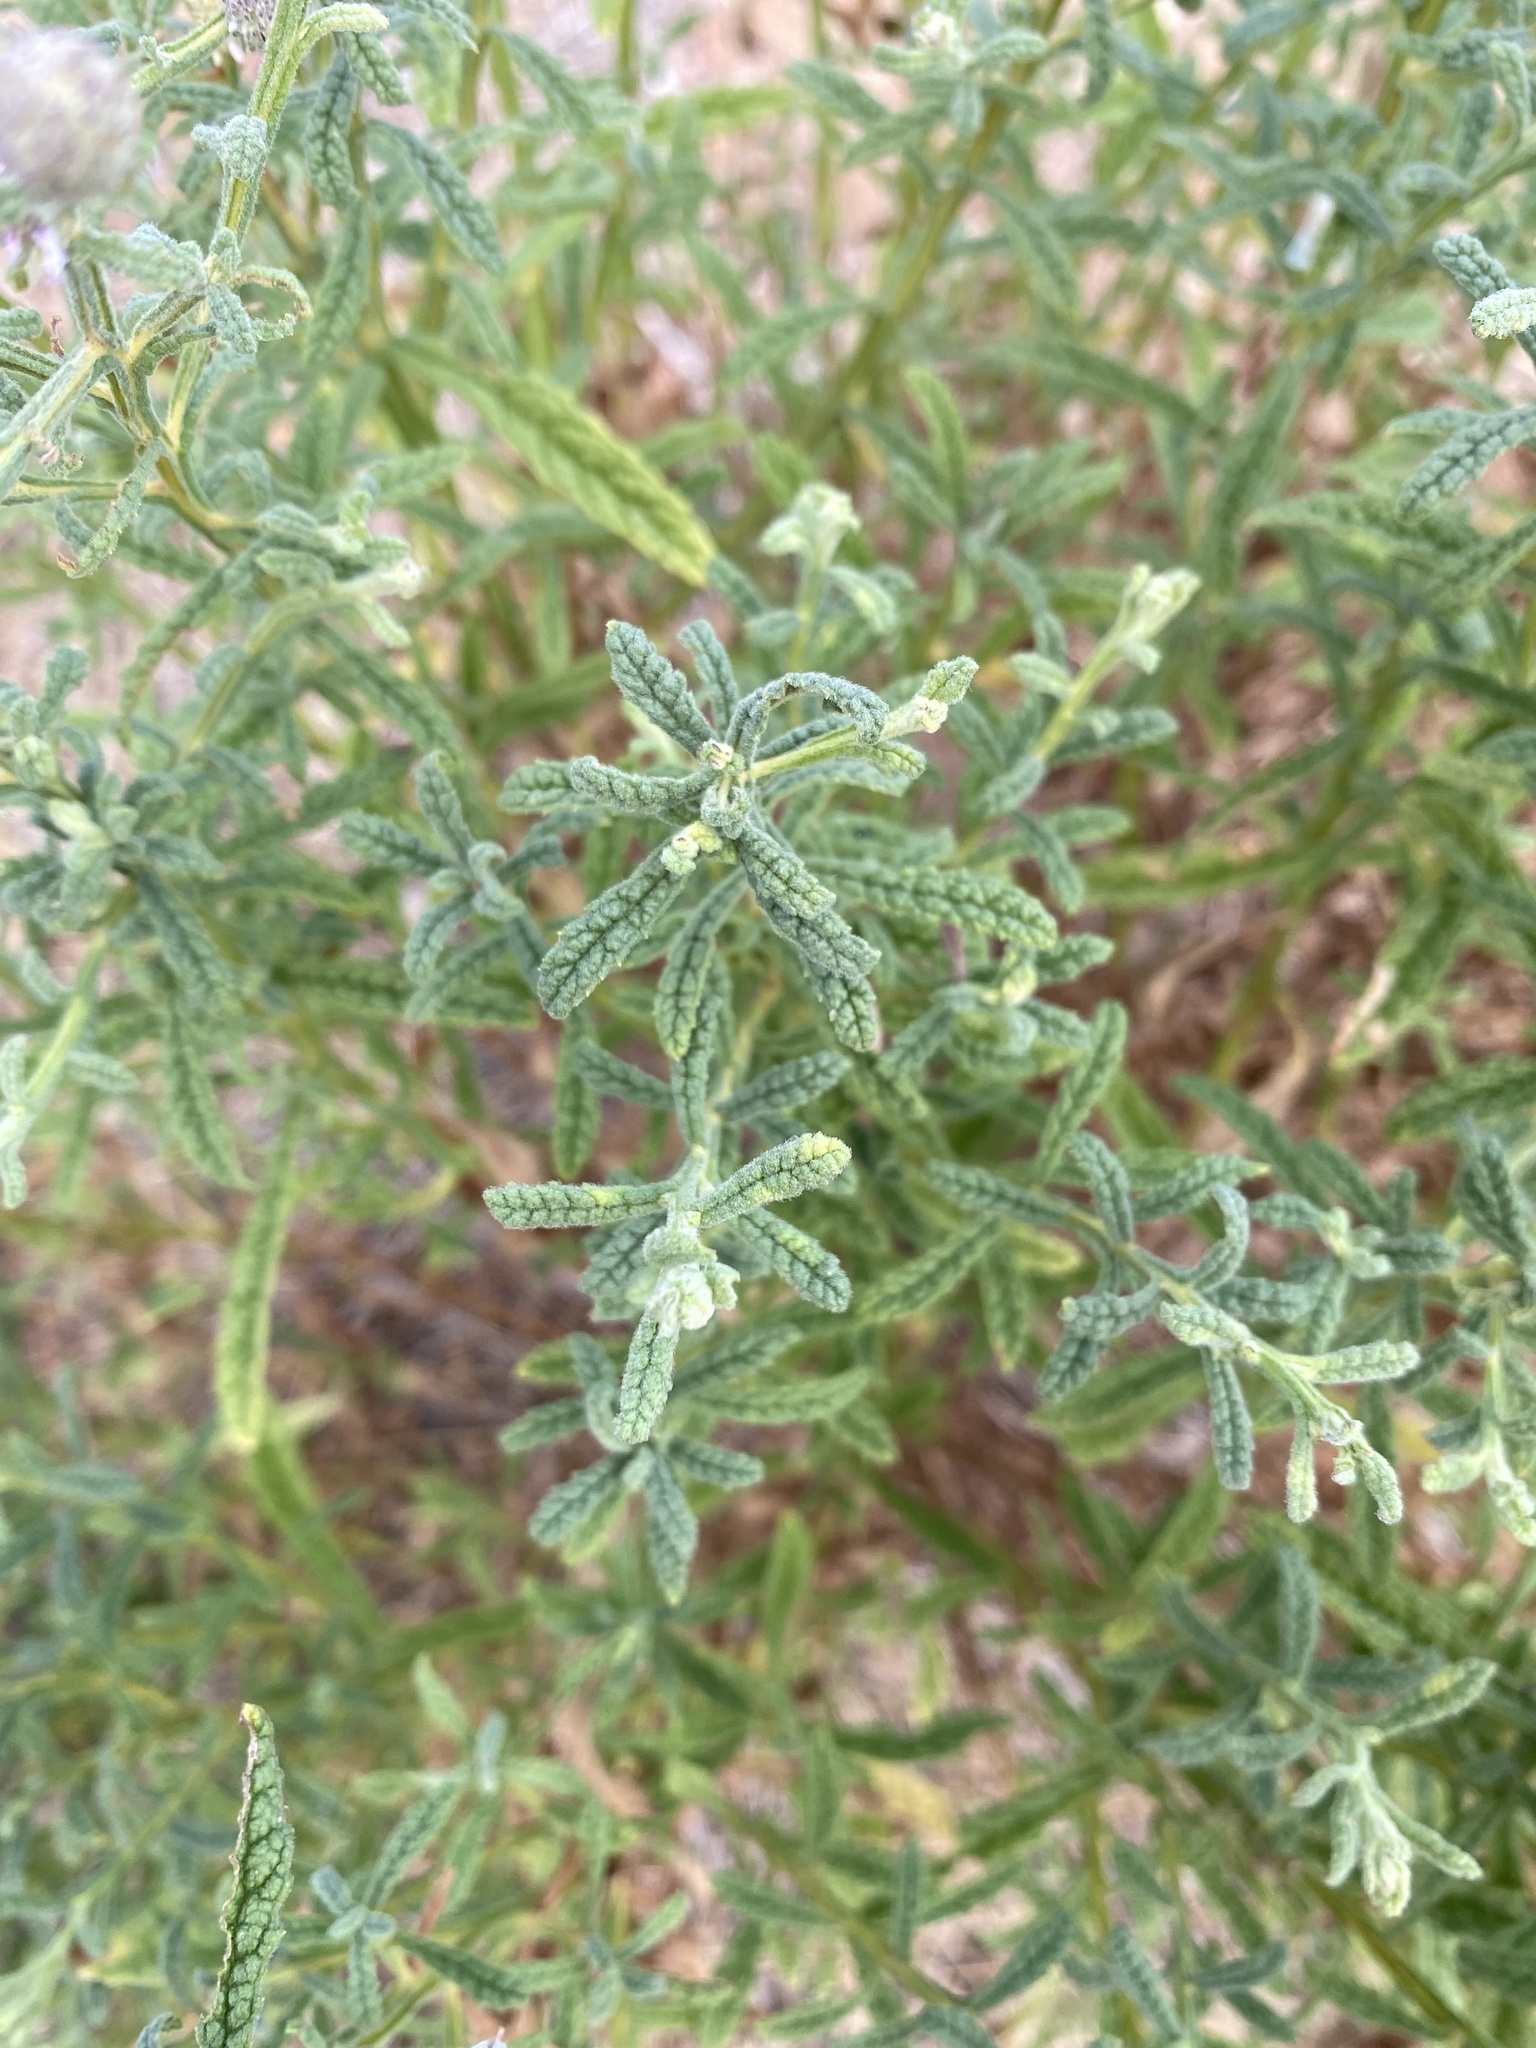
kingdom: Plantae
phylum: Tracheophyta
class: Magnoliopsida
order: Asterales
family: Asteraceae
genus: Pterocaulon
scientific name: Pterocaulon sphacelatum
